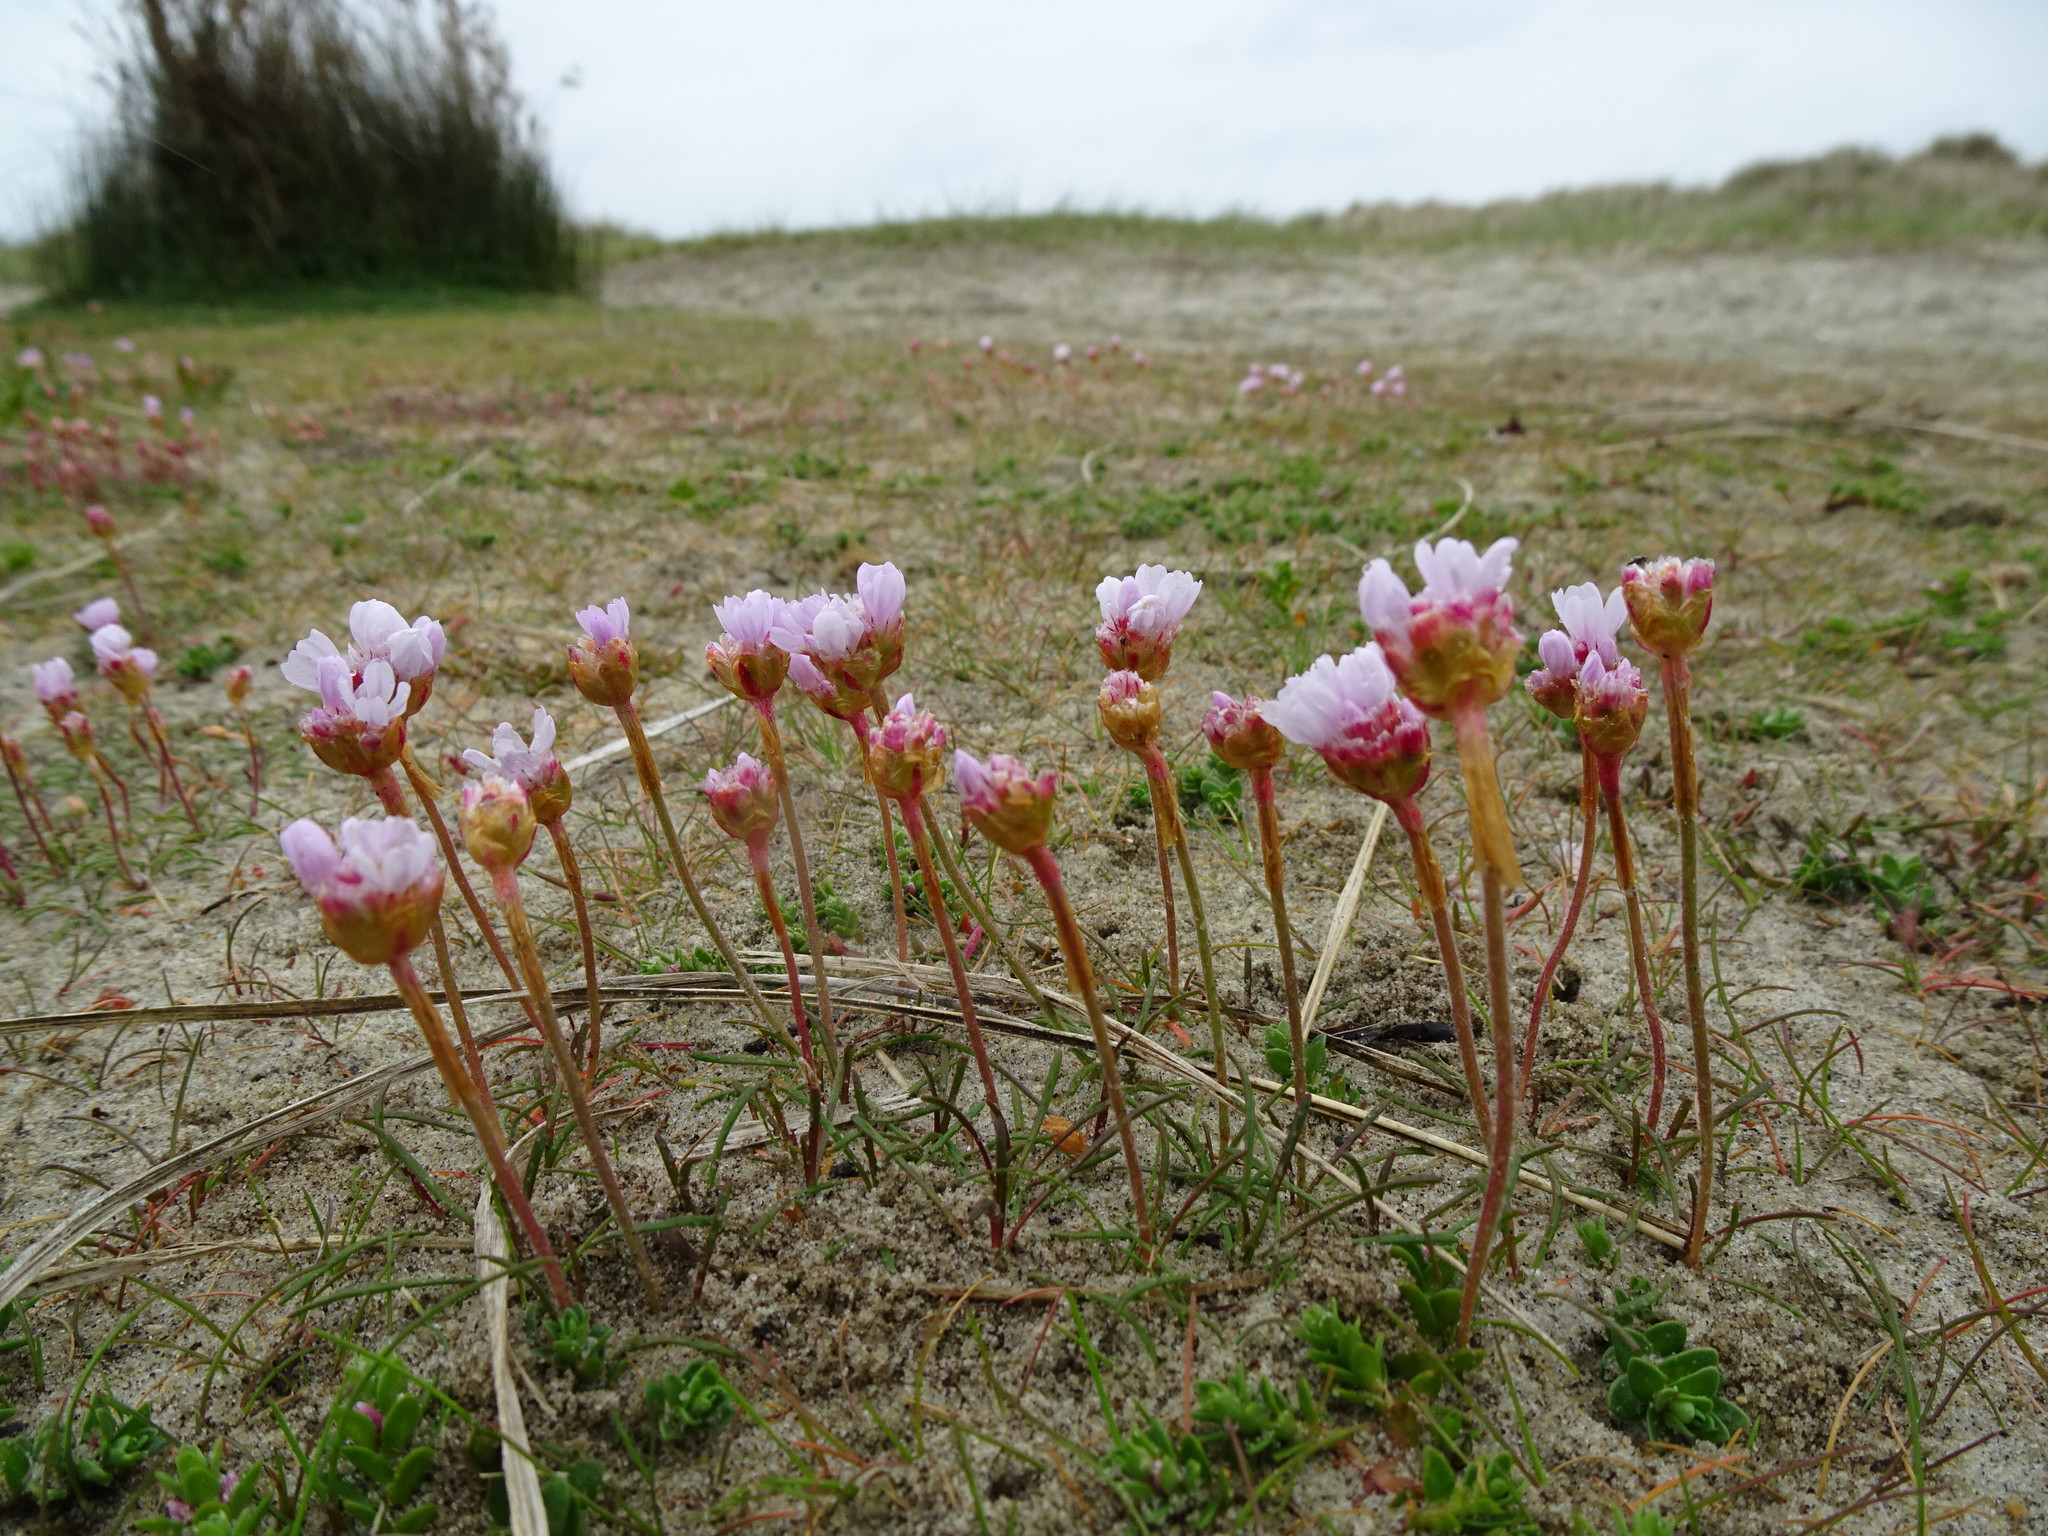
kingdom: Plantae
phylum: Tracheophyta
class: Magnoliopsida
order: Caryophyllales
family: Plumbaginaceae
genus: Armeria
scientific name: Armeria maritima
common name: Thrift
